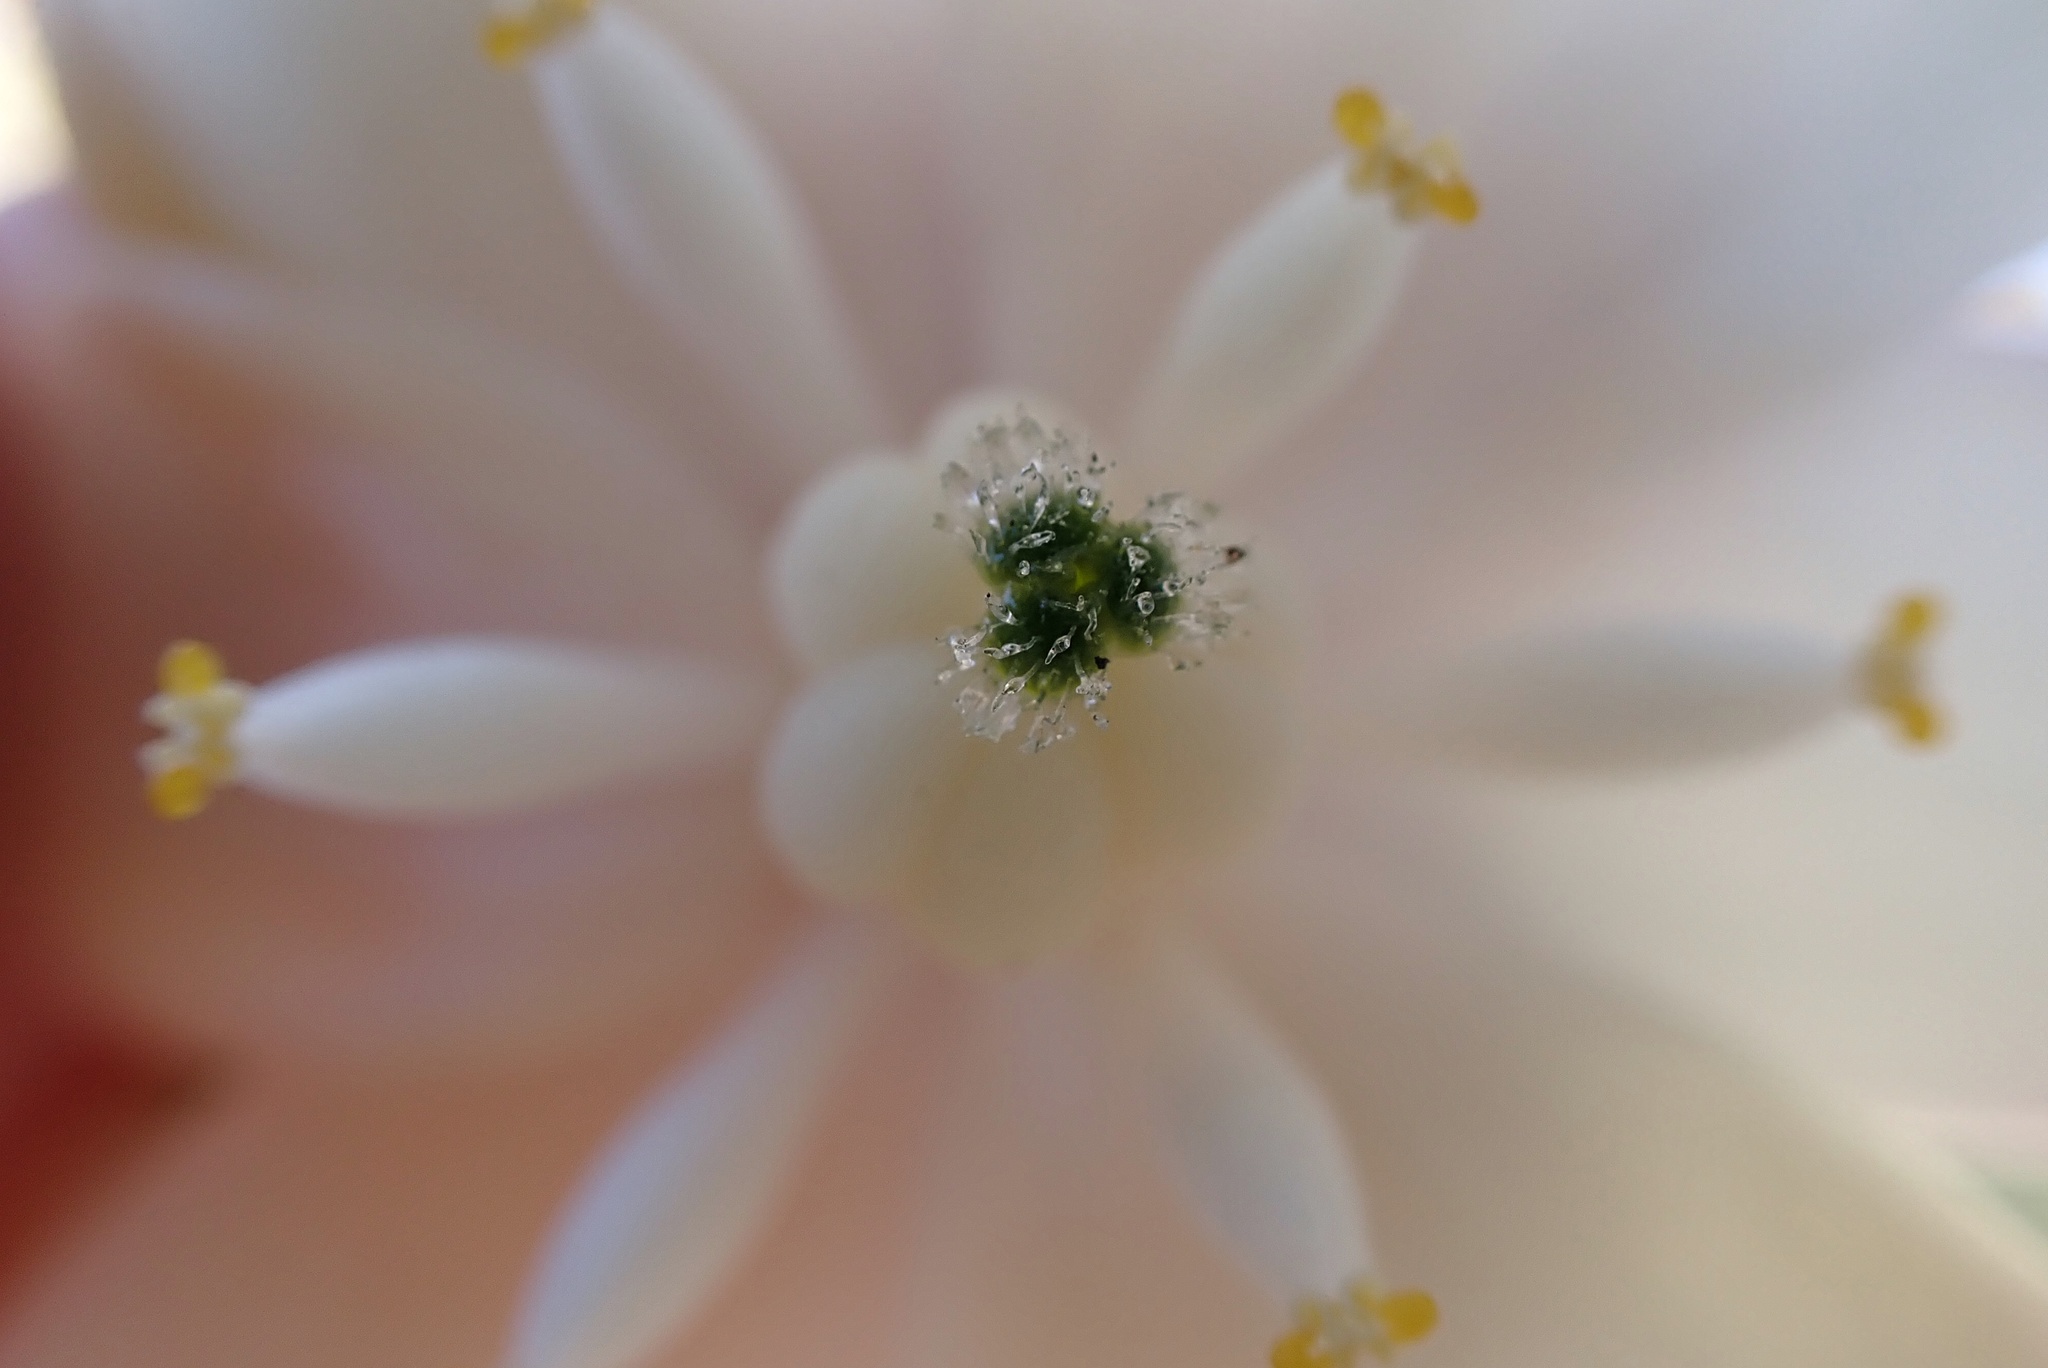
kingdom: Plantae
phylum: Tracheophyta
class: Liliopsida
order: Asparagales
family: Asparagaceae
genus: Hesperoyucca
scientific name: Hesperoyucca whipplei
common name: Our lord's-candle
